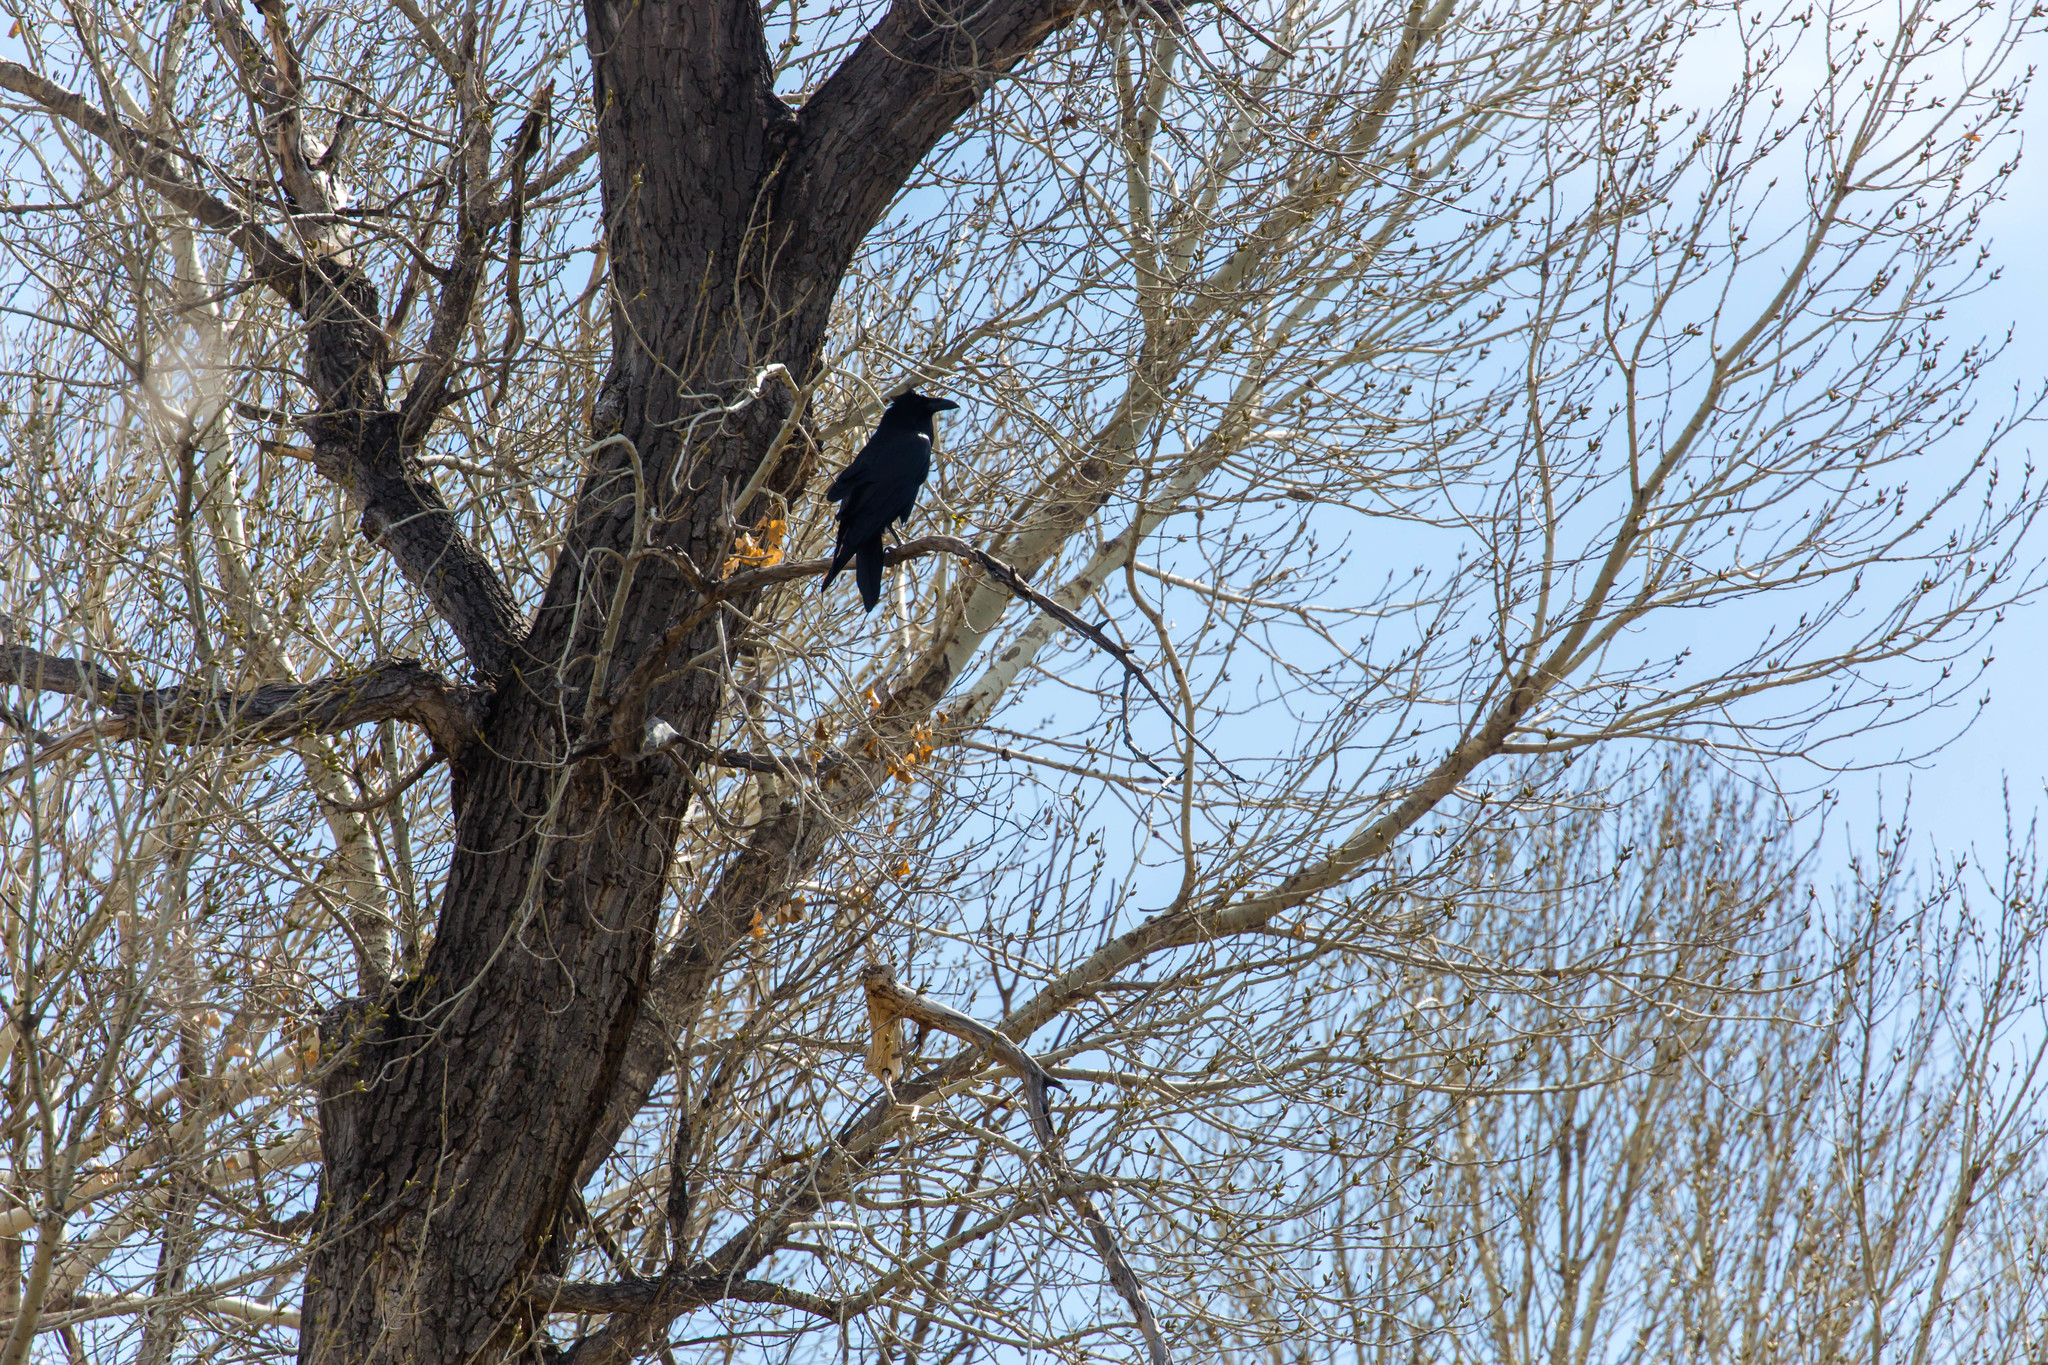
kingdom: Animalia
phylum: Chordata
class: Aves
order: Passeriformes
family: Corvidae
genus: Corvus
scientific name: Corvus corax
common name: Common raven
